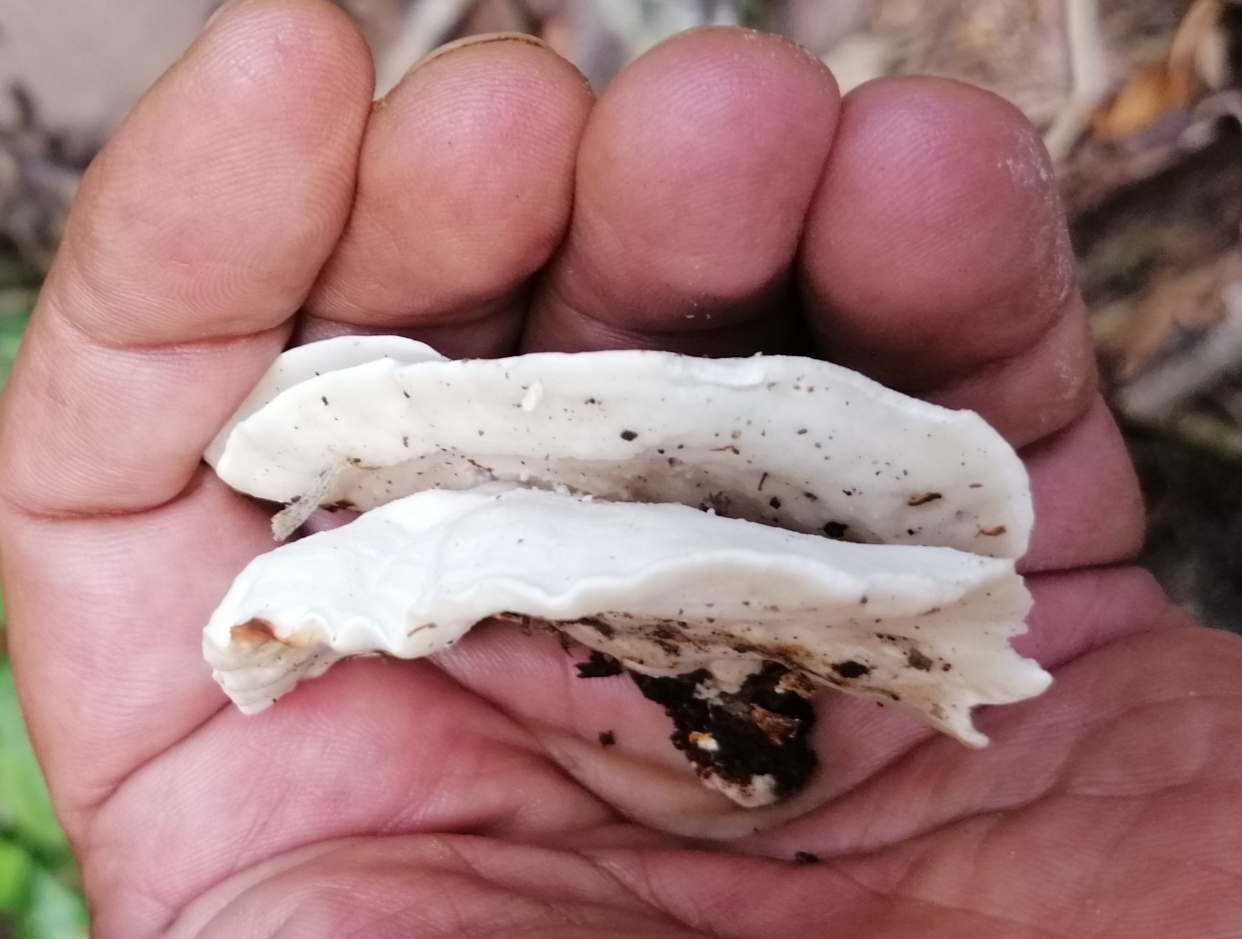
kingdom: Fungi
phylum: Basidiomycota
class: Agaricomycetes
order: Russulales
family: Bondarzewiaceae
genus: Amylosporus
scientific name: Amylosporus campbellii
